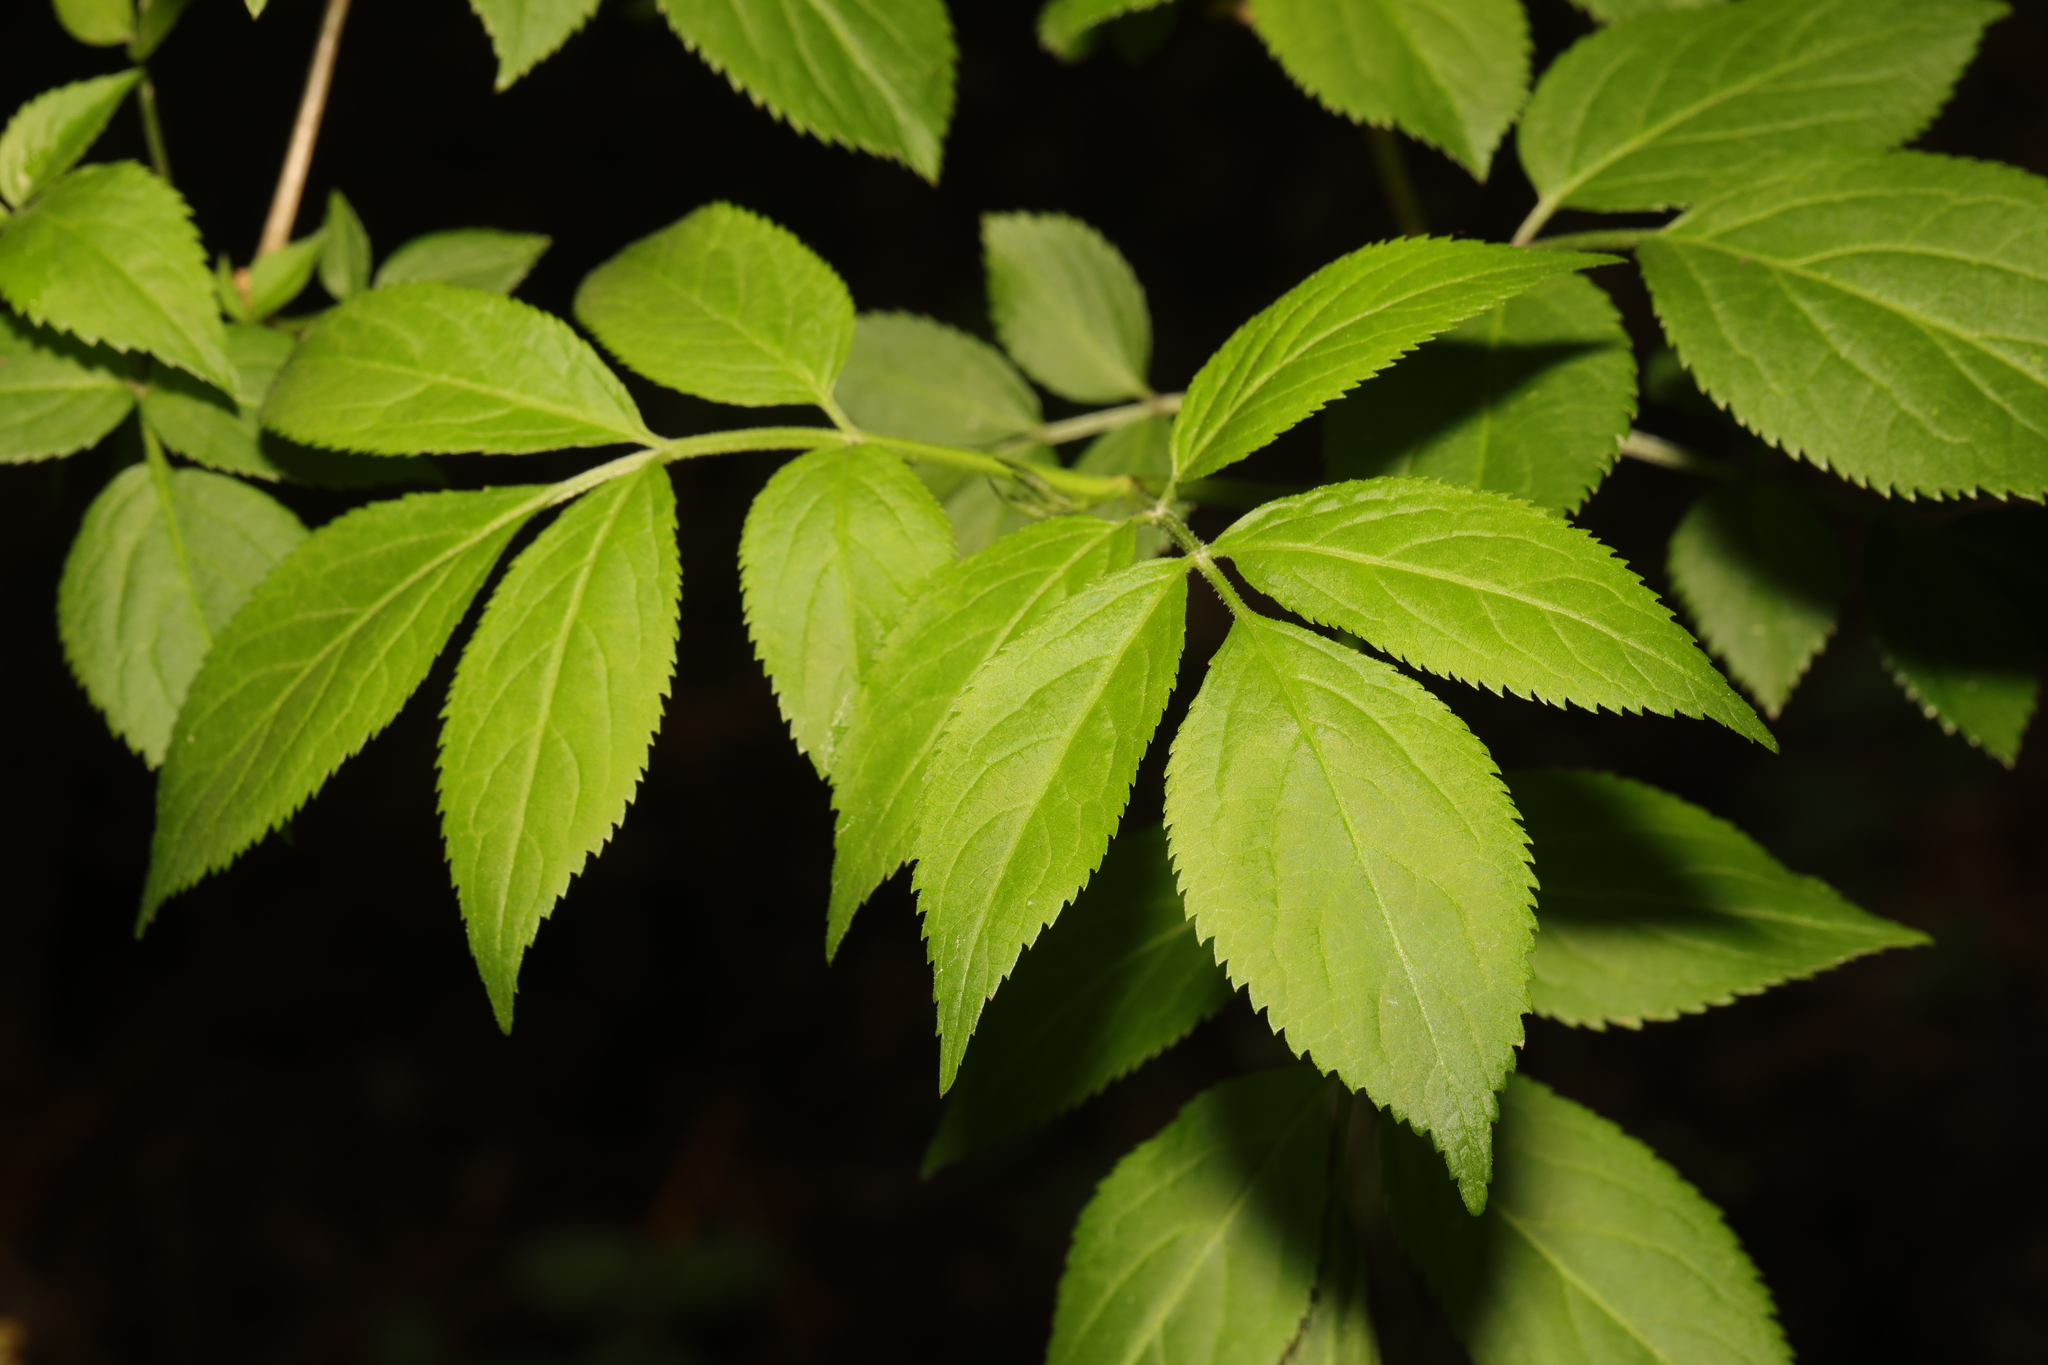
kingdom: Plantae
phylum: Tracheophyta
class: Magnoliopsida
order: Dipsacales
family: Viburnaceae
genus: Sambucus
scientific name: Sambucus nigra
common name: Elder
